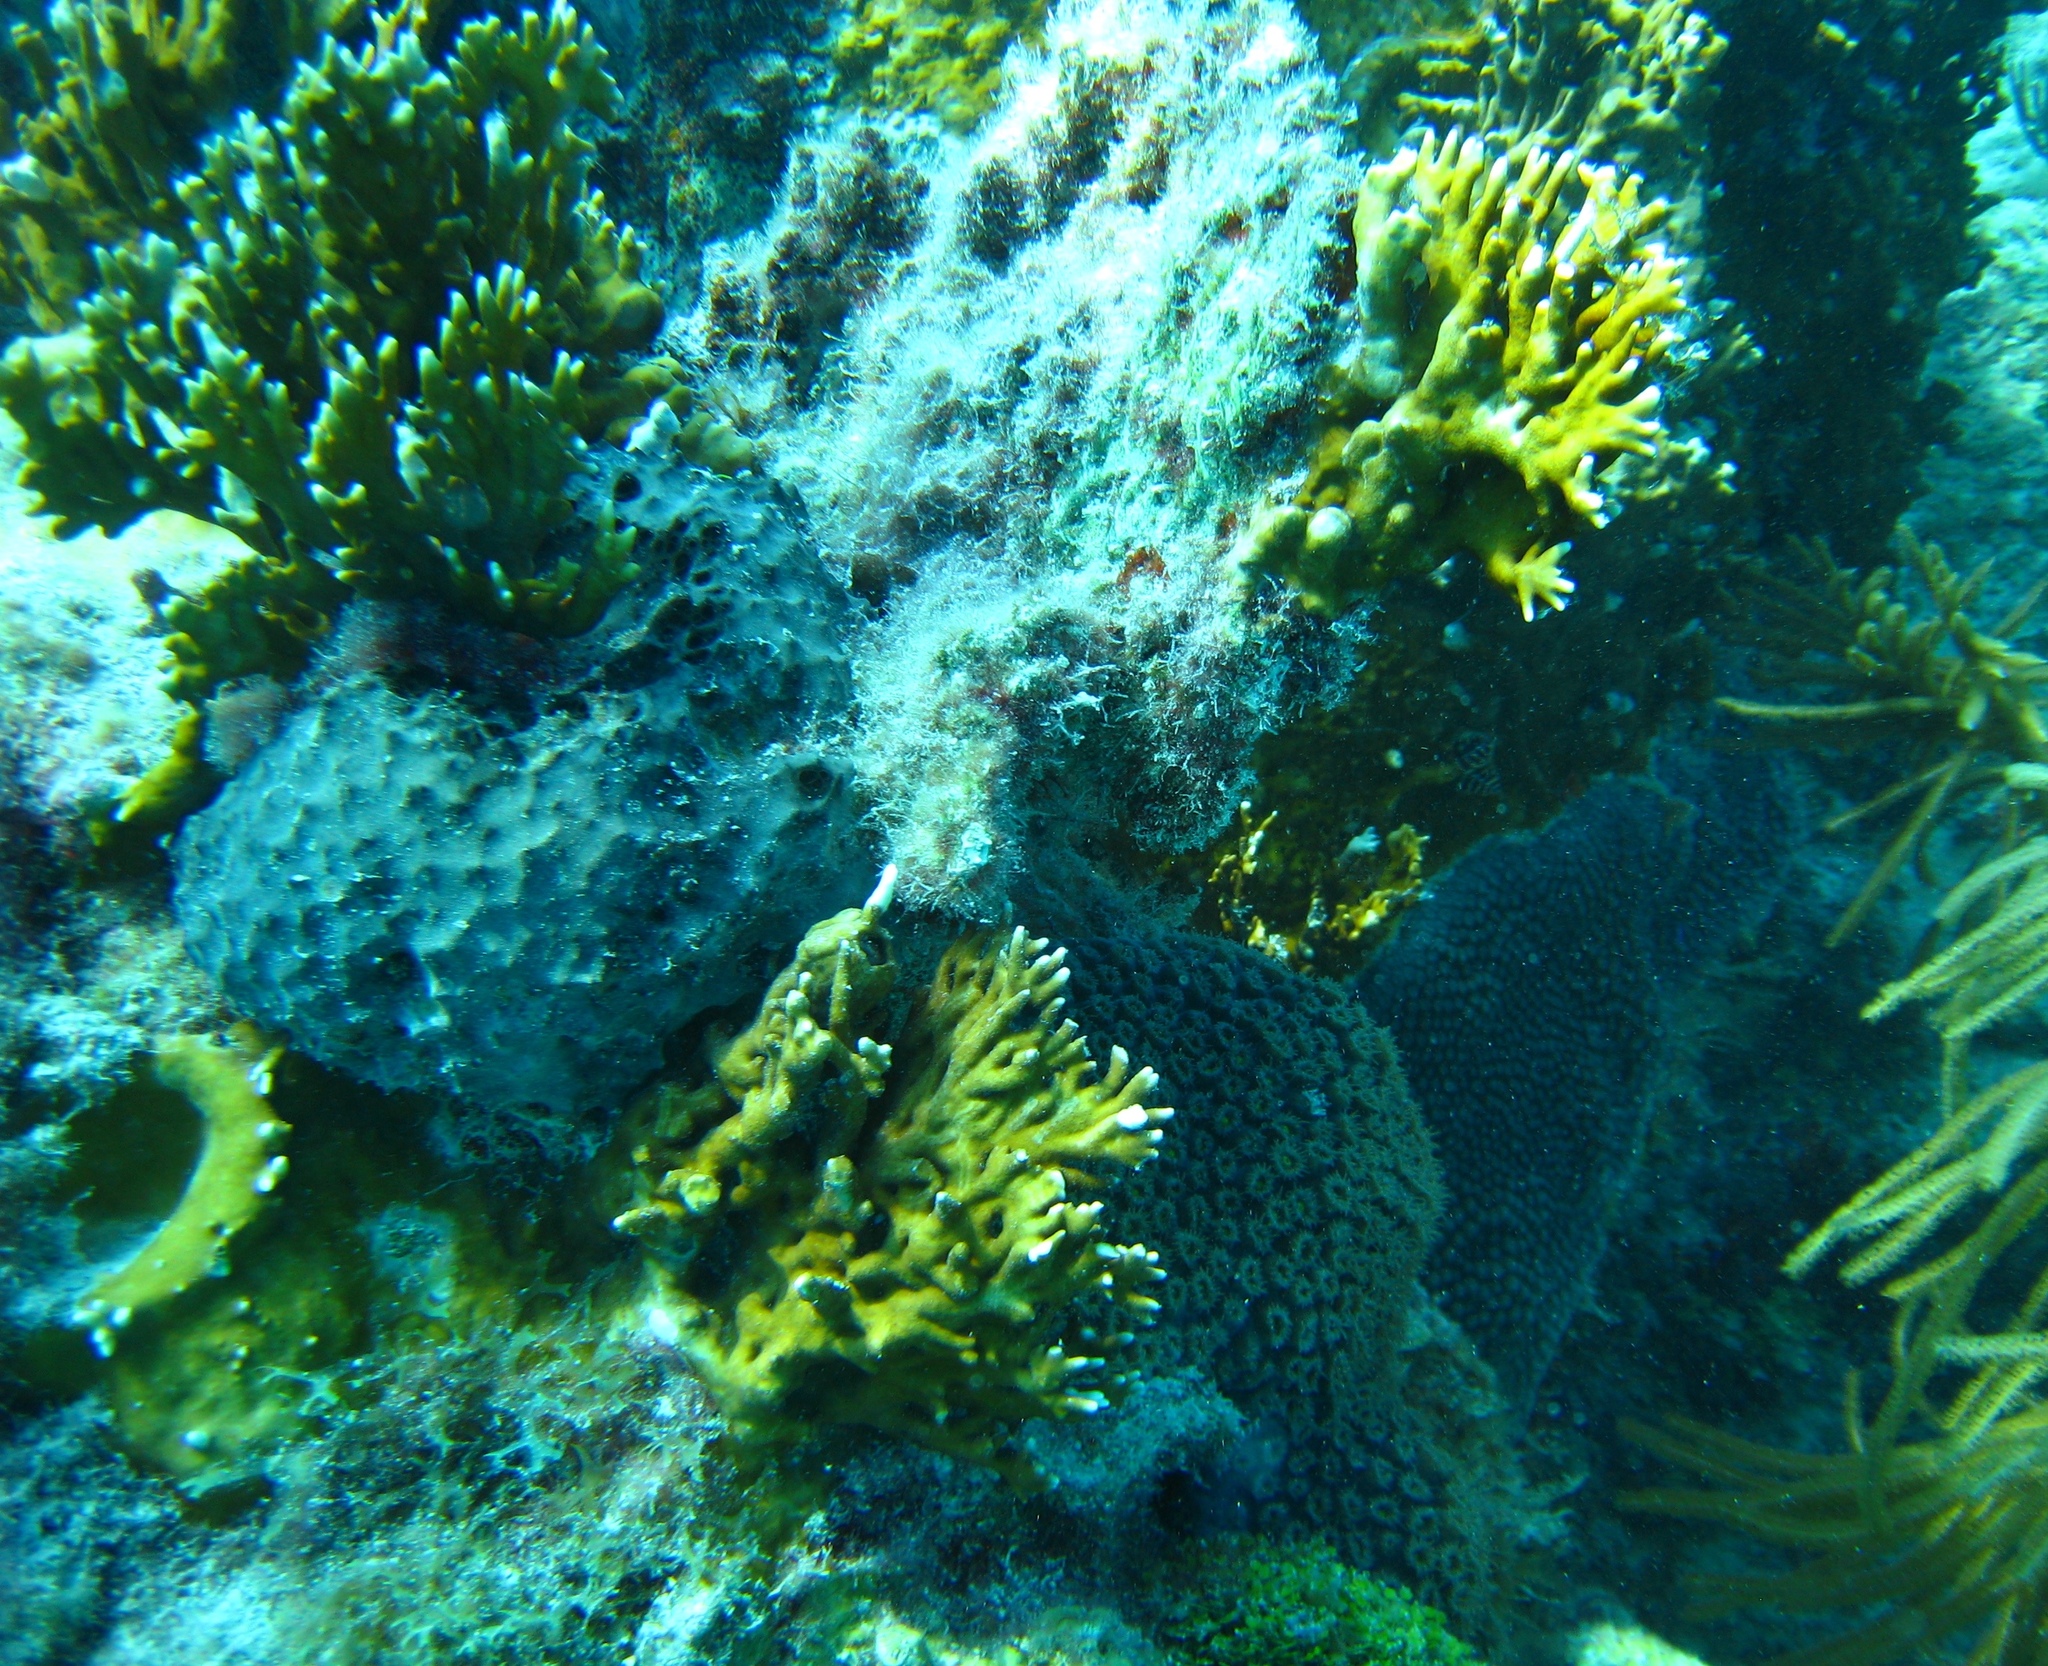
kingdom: Animalia
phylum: Cnidaria
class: Hydrozoa
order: Anthoathecata
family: Milleporidae
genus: Millepora
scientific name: Millepora alcicornis
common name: Branching fire coral
